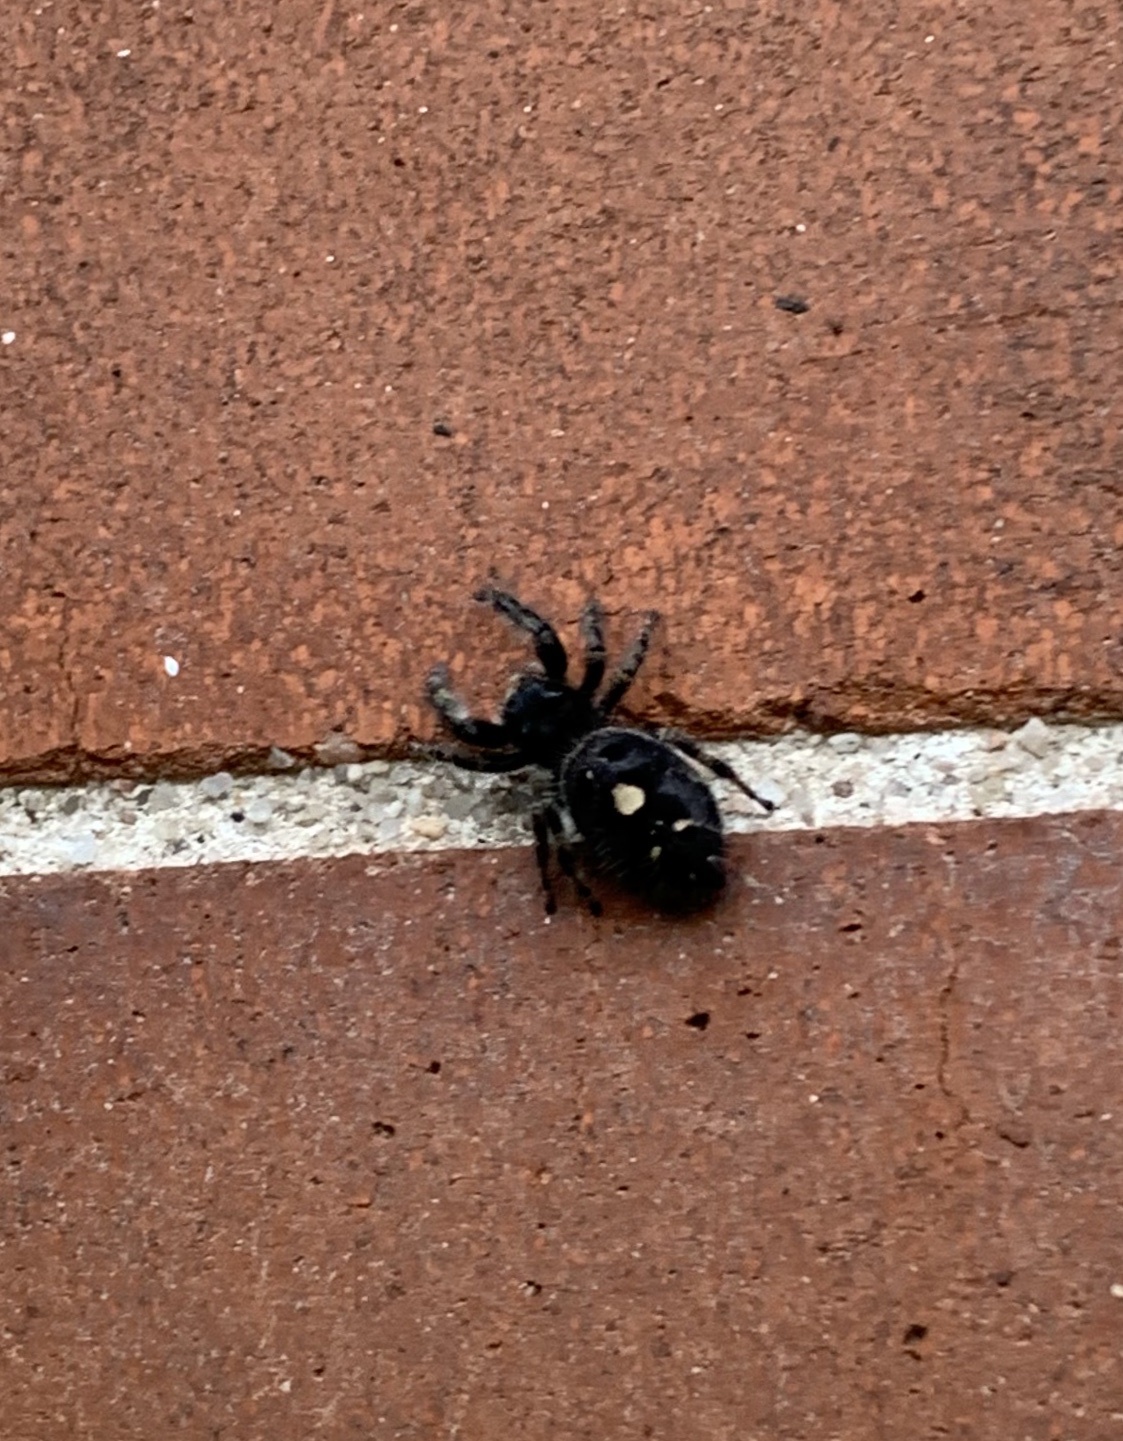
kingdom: Animalia
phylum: Arthropoda
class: Arachnida
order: Araneae
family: Salticidae
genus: Phidippus
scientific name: Phidippus audax
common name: Bold jumper
